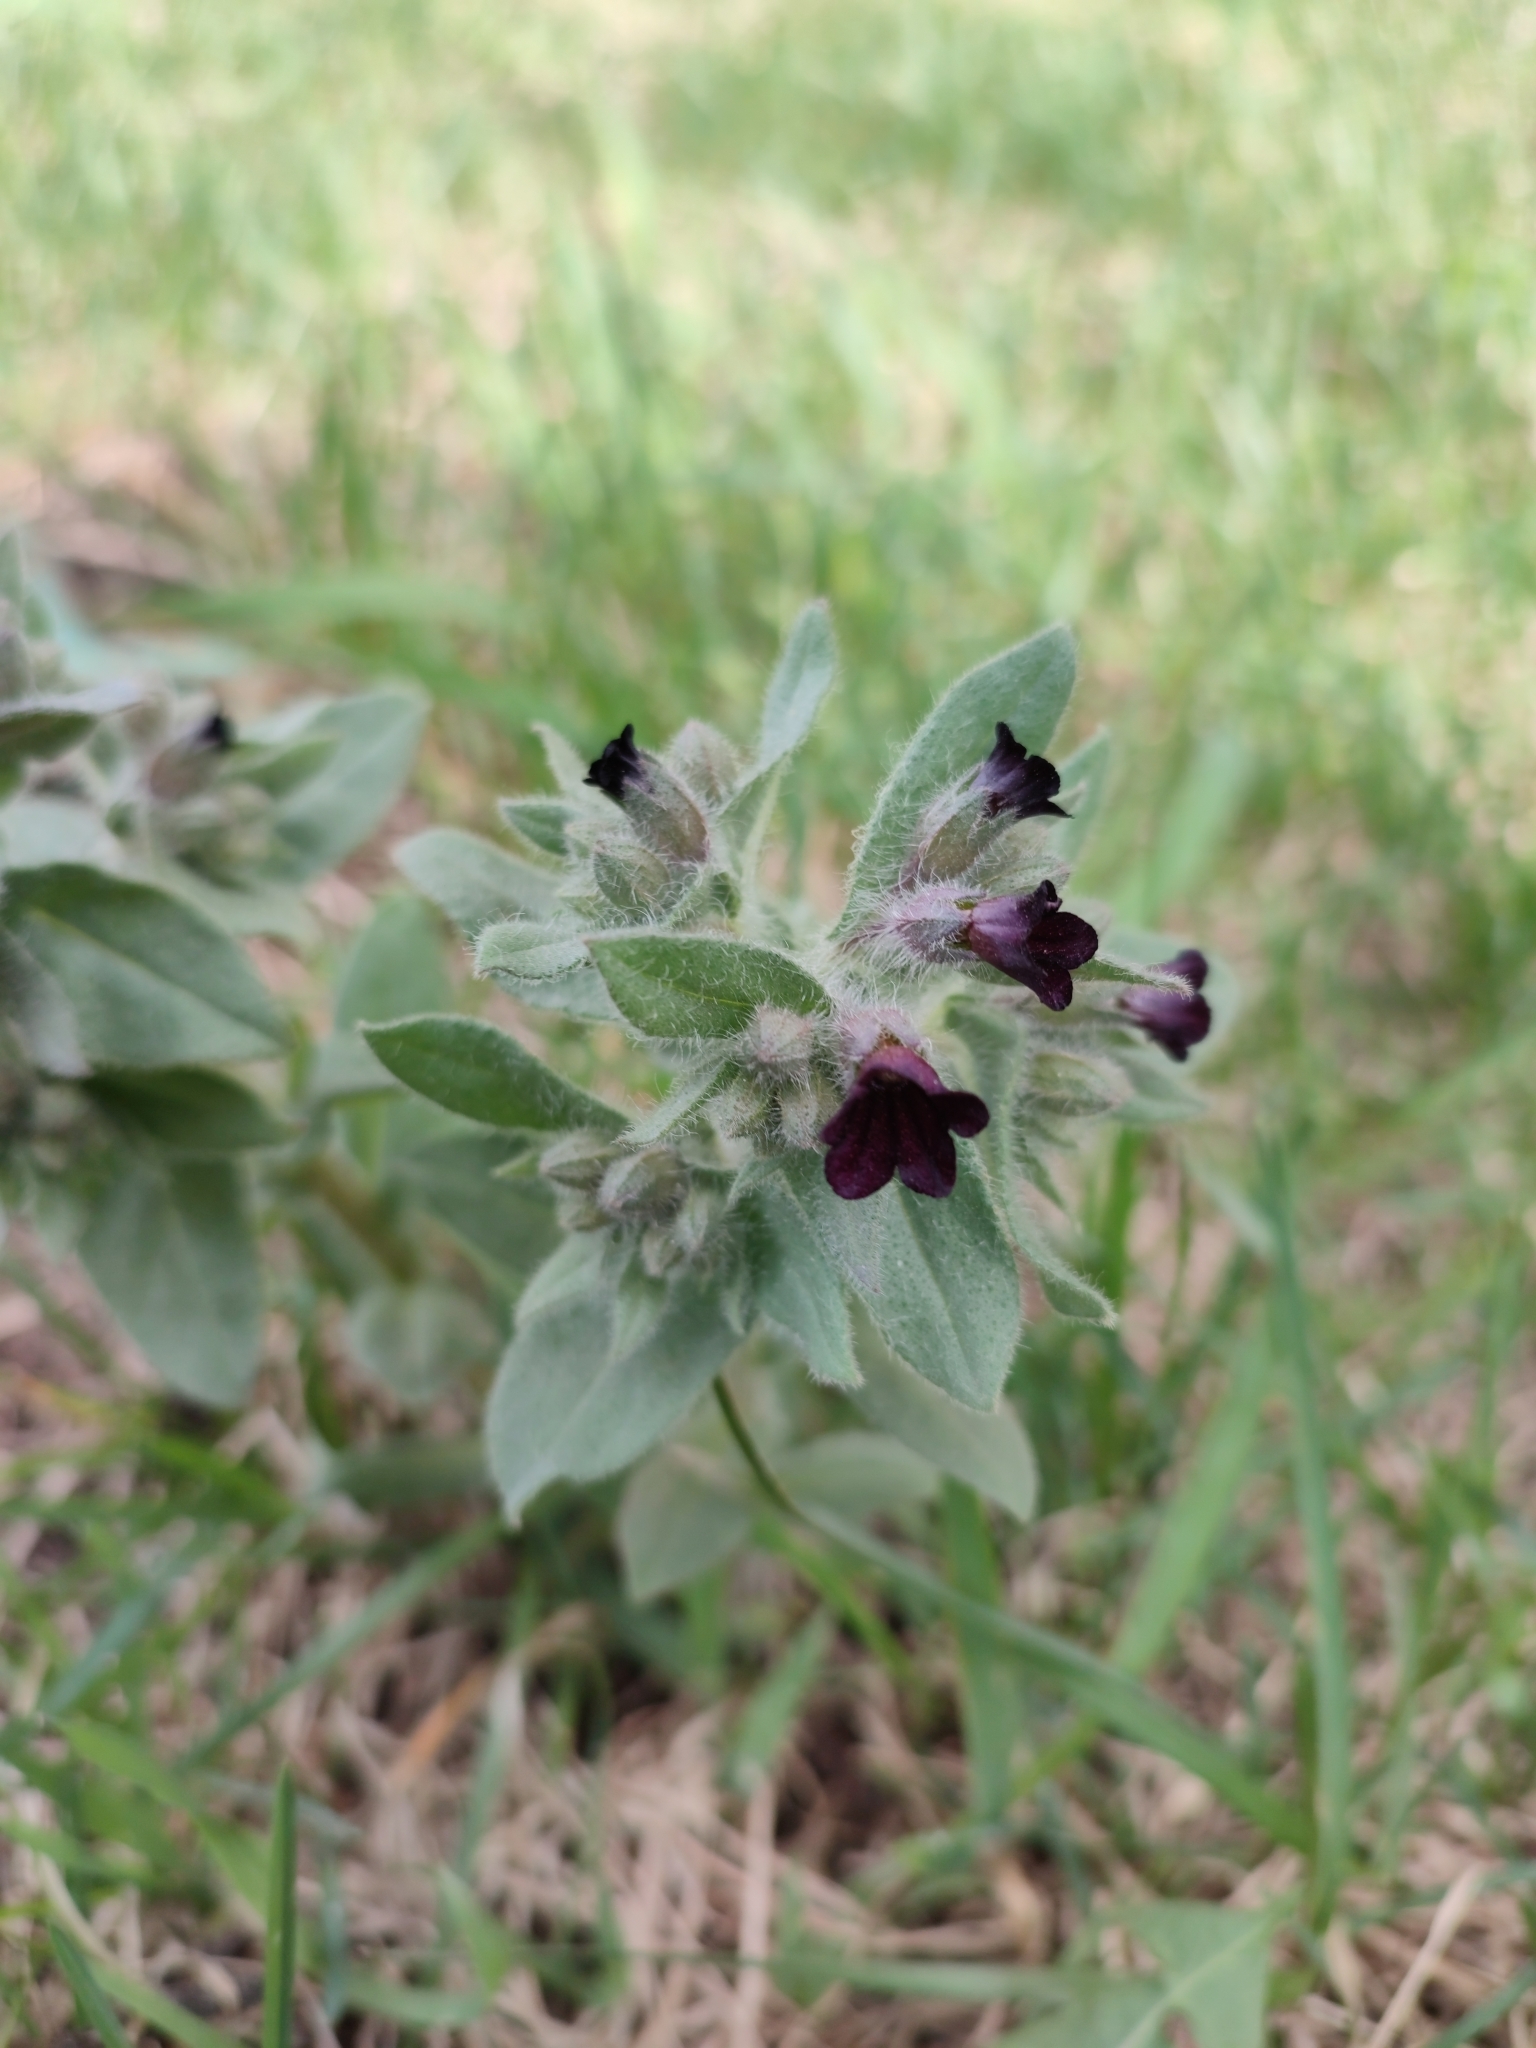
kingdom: Plantae
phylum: Tracheophyta
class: Magnoliopsida
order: Boraginales
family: Boraginaceae
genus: Nonea
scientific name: Nonea pulla
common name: Brown nonea
